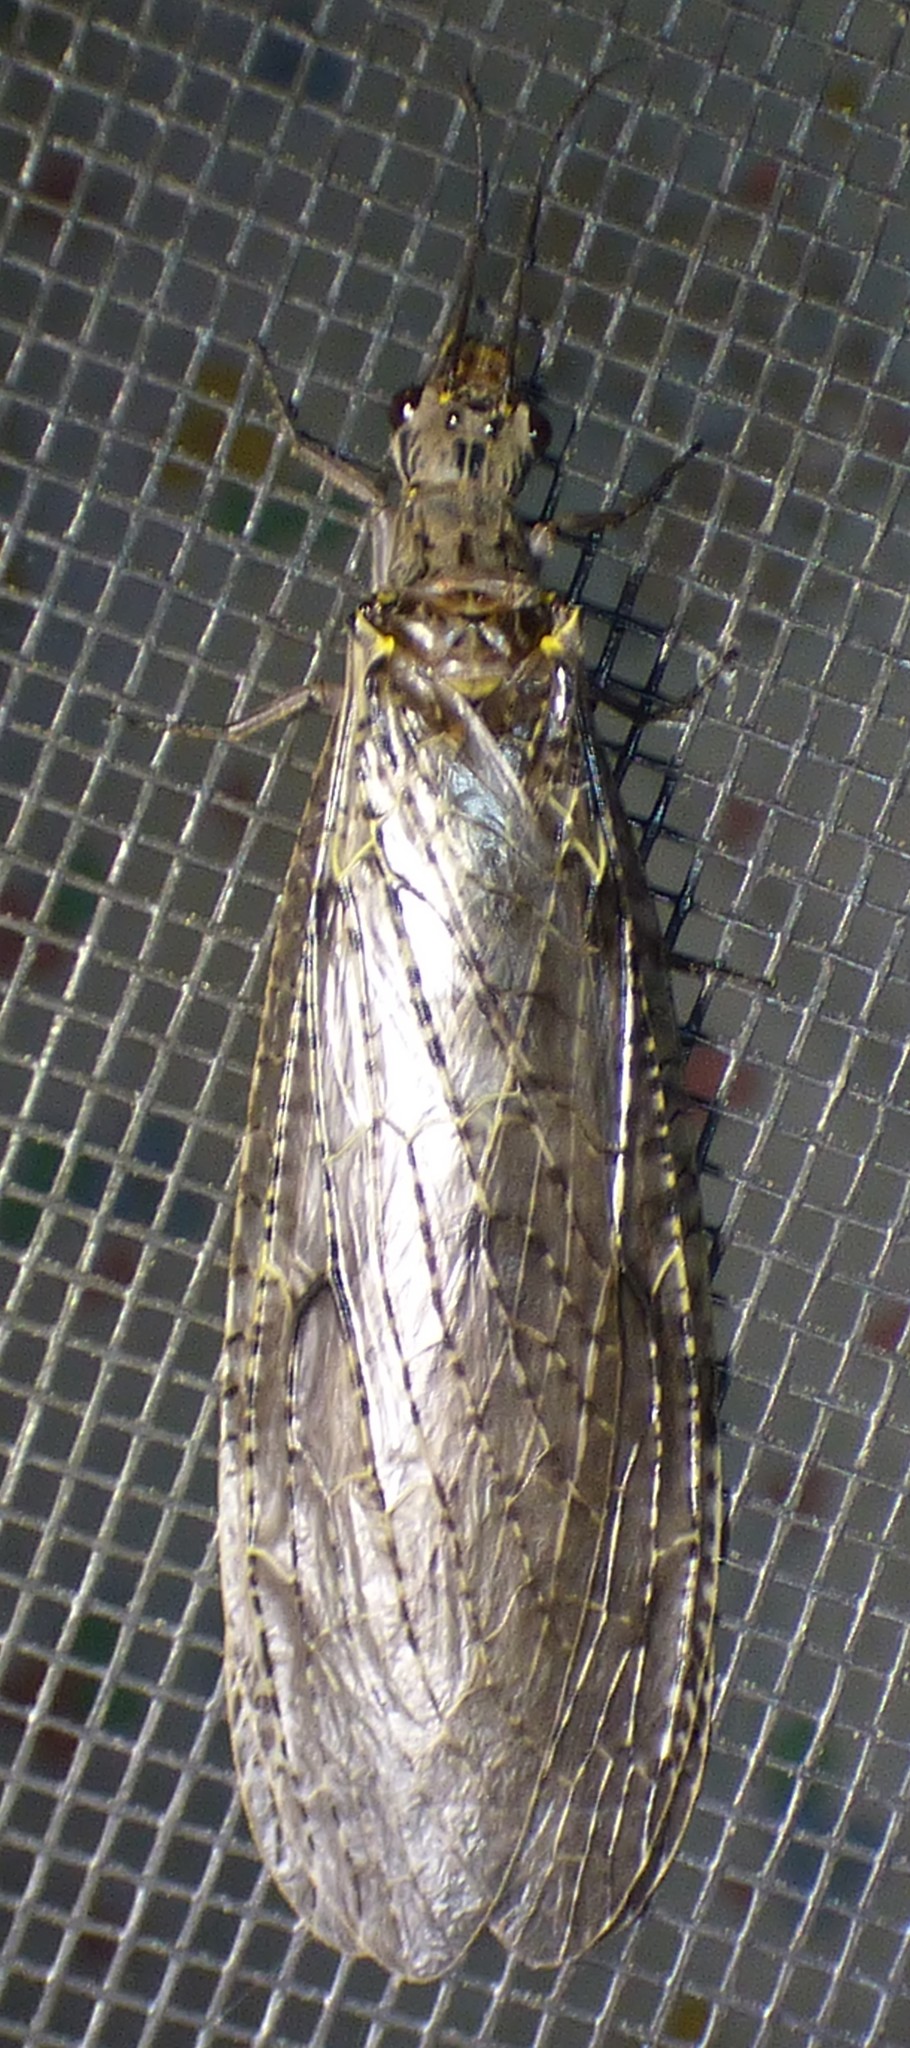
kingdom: Animalia
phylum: Arthropoda
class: Insecta
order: Megaloptera
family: Corydalidae
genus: Chauliodes
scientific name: Chauliodes rastricornis
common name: Spring fishfly
